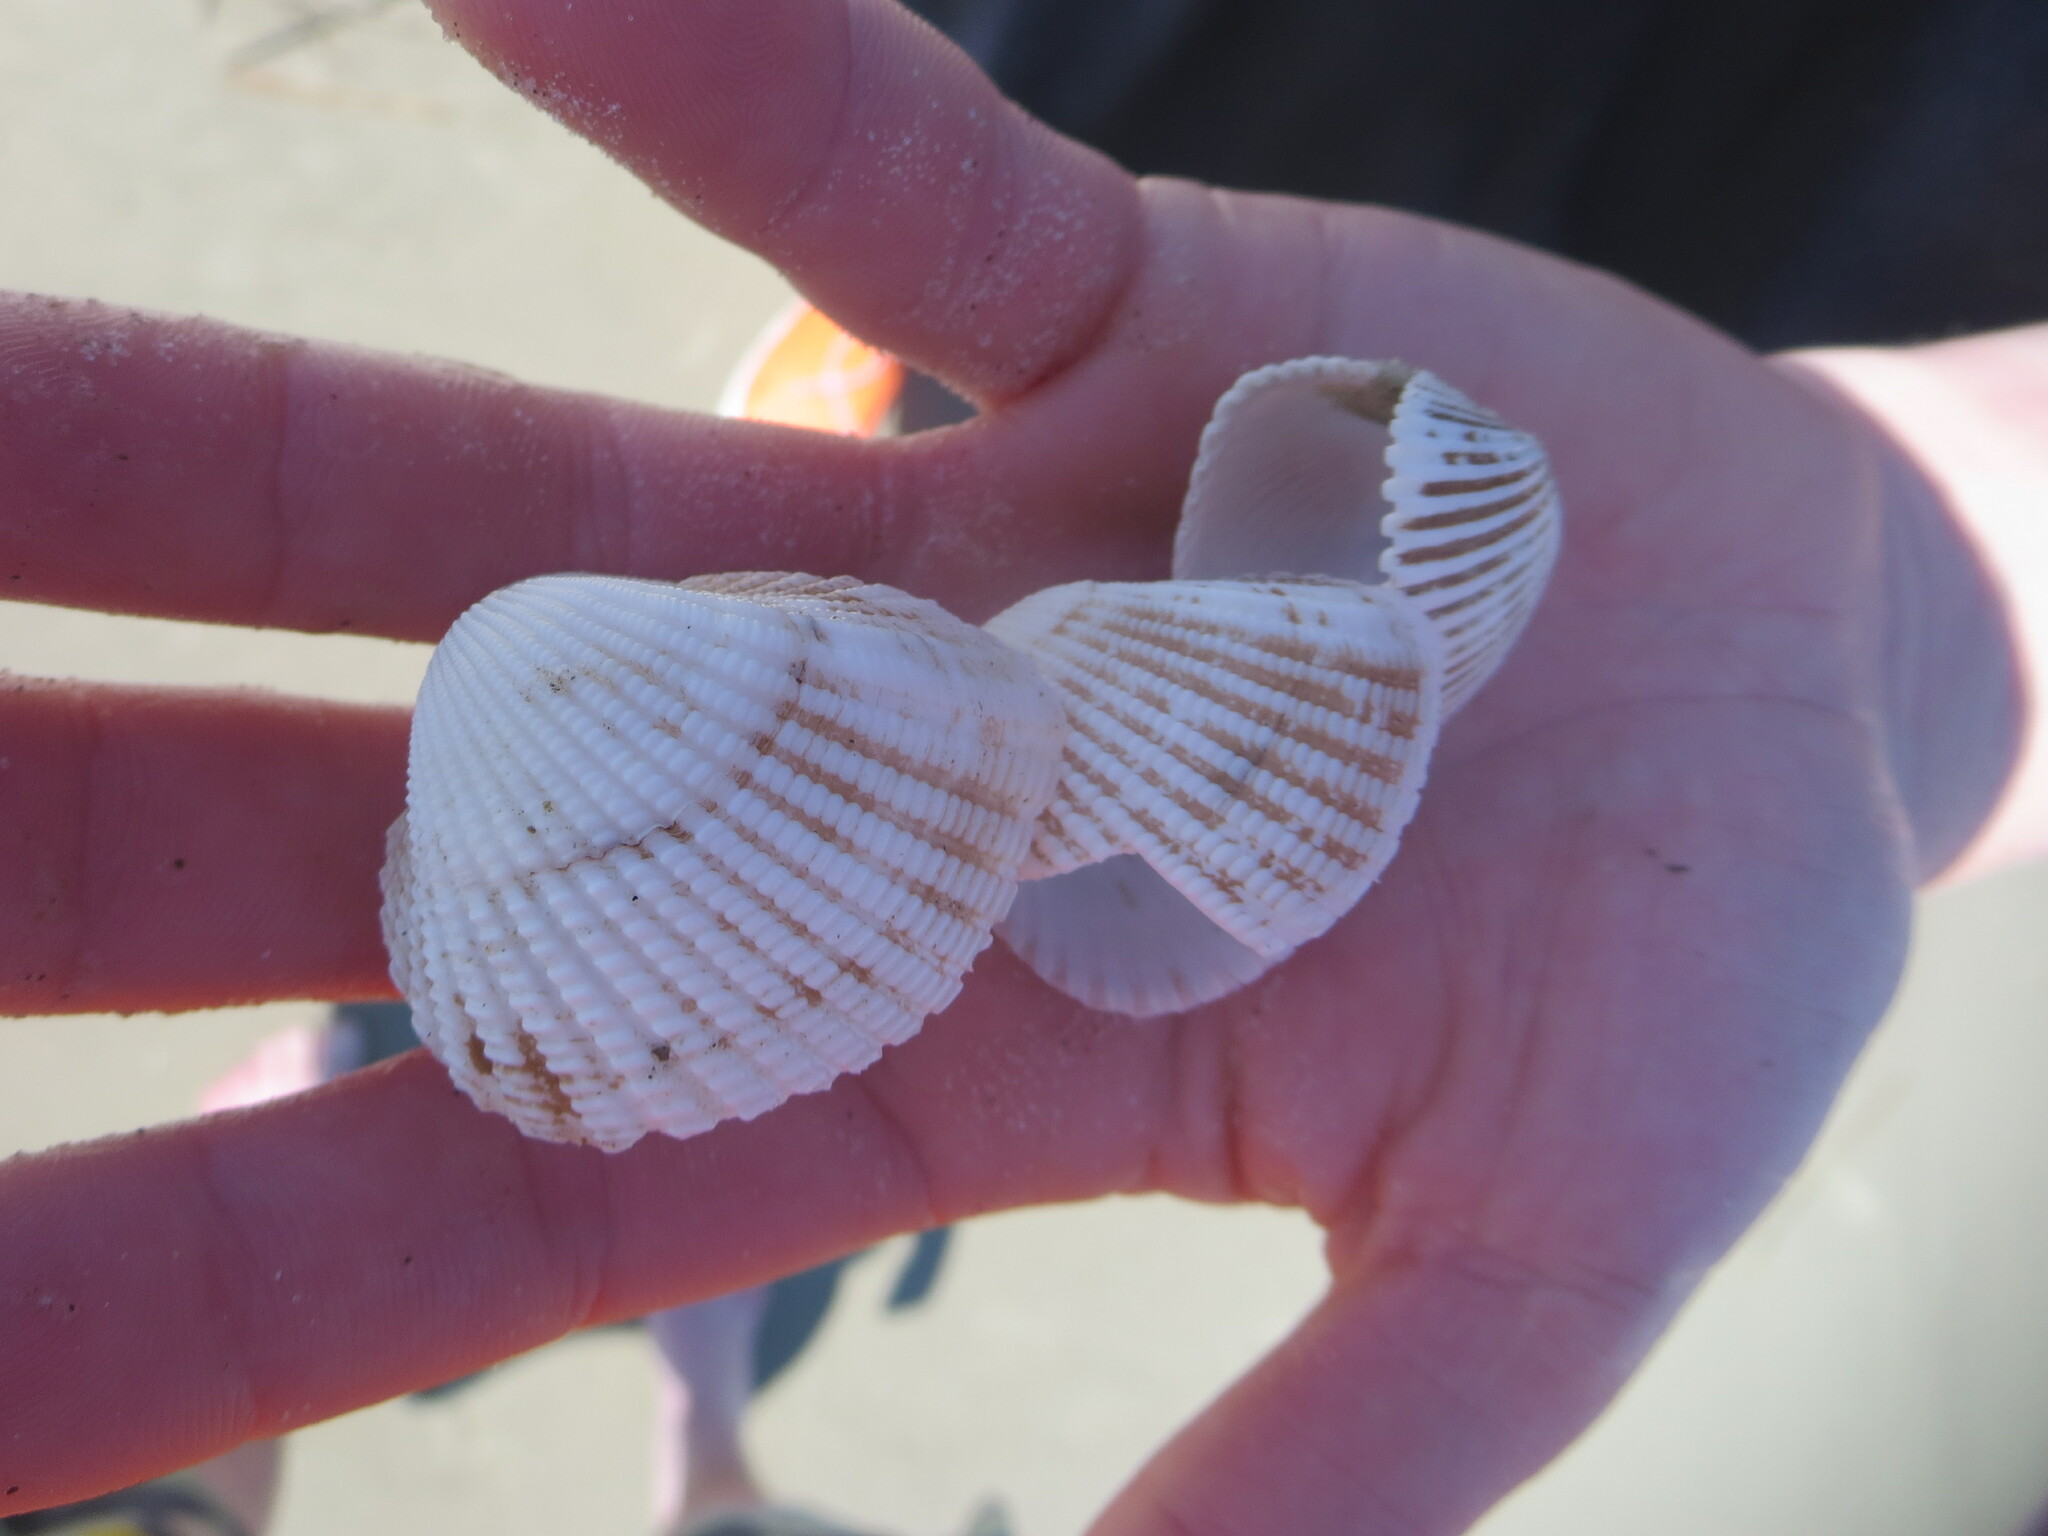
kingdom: Animalia
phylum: Mollusca
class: Bivalvia
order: Arcida
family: Arcidae
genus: Anadara
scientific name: Anadara brasiliana
